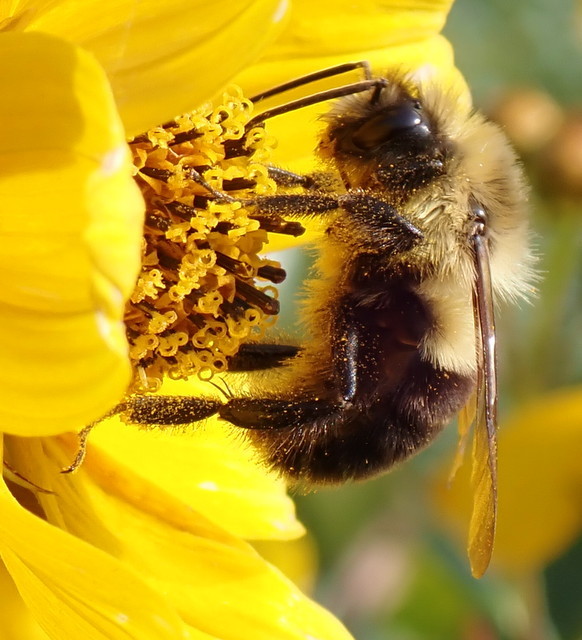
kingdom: Animalia
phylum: Arthropoda
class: Insecta
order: Hymenoptera
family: Apidae
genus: Bombus
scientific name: Bombus impatiens
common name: Common eastern bumble bee
